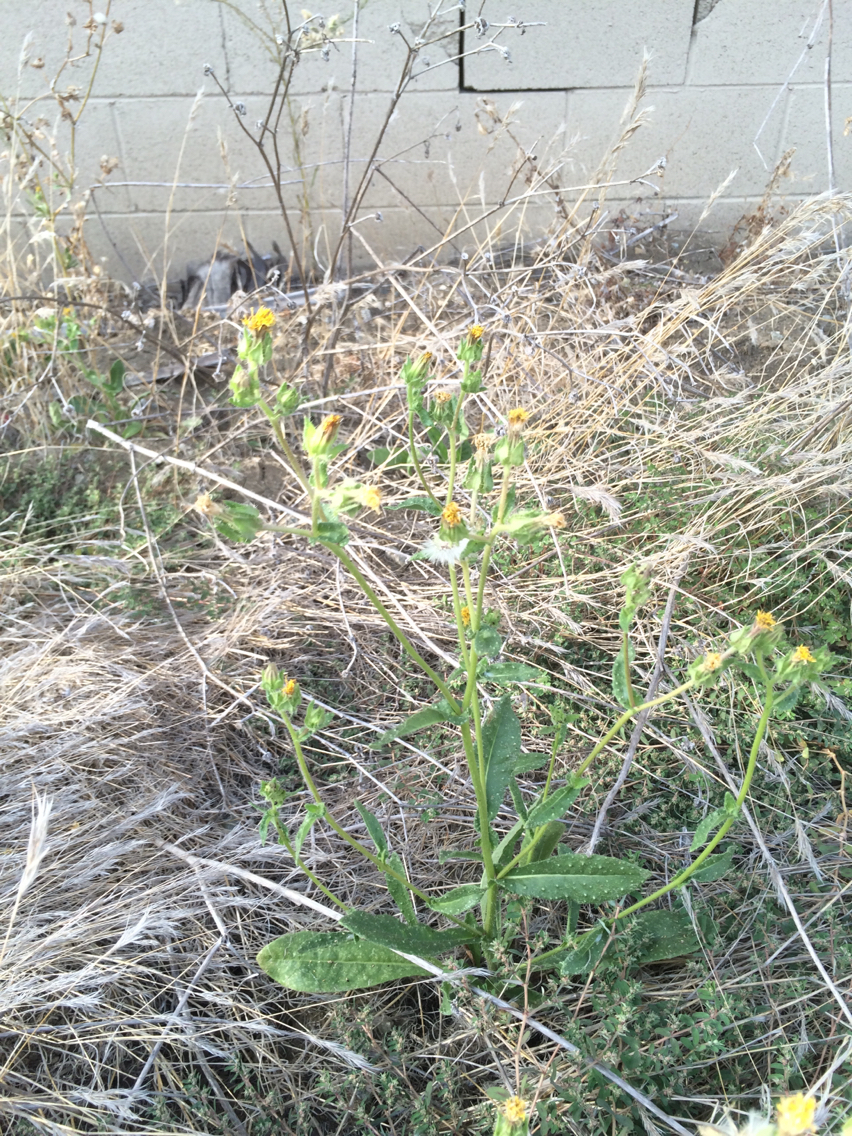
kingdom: Plantae
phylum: Tracheophyta
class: Magnoliopsida
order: Asterales
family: Asteraceae
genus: Helminthotheca
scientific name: Helminthotheca echioides
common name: Ox-tongue
